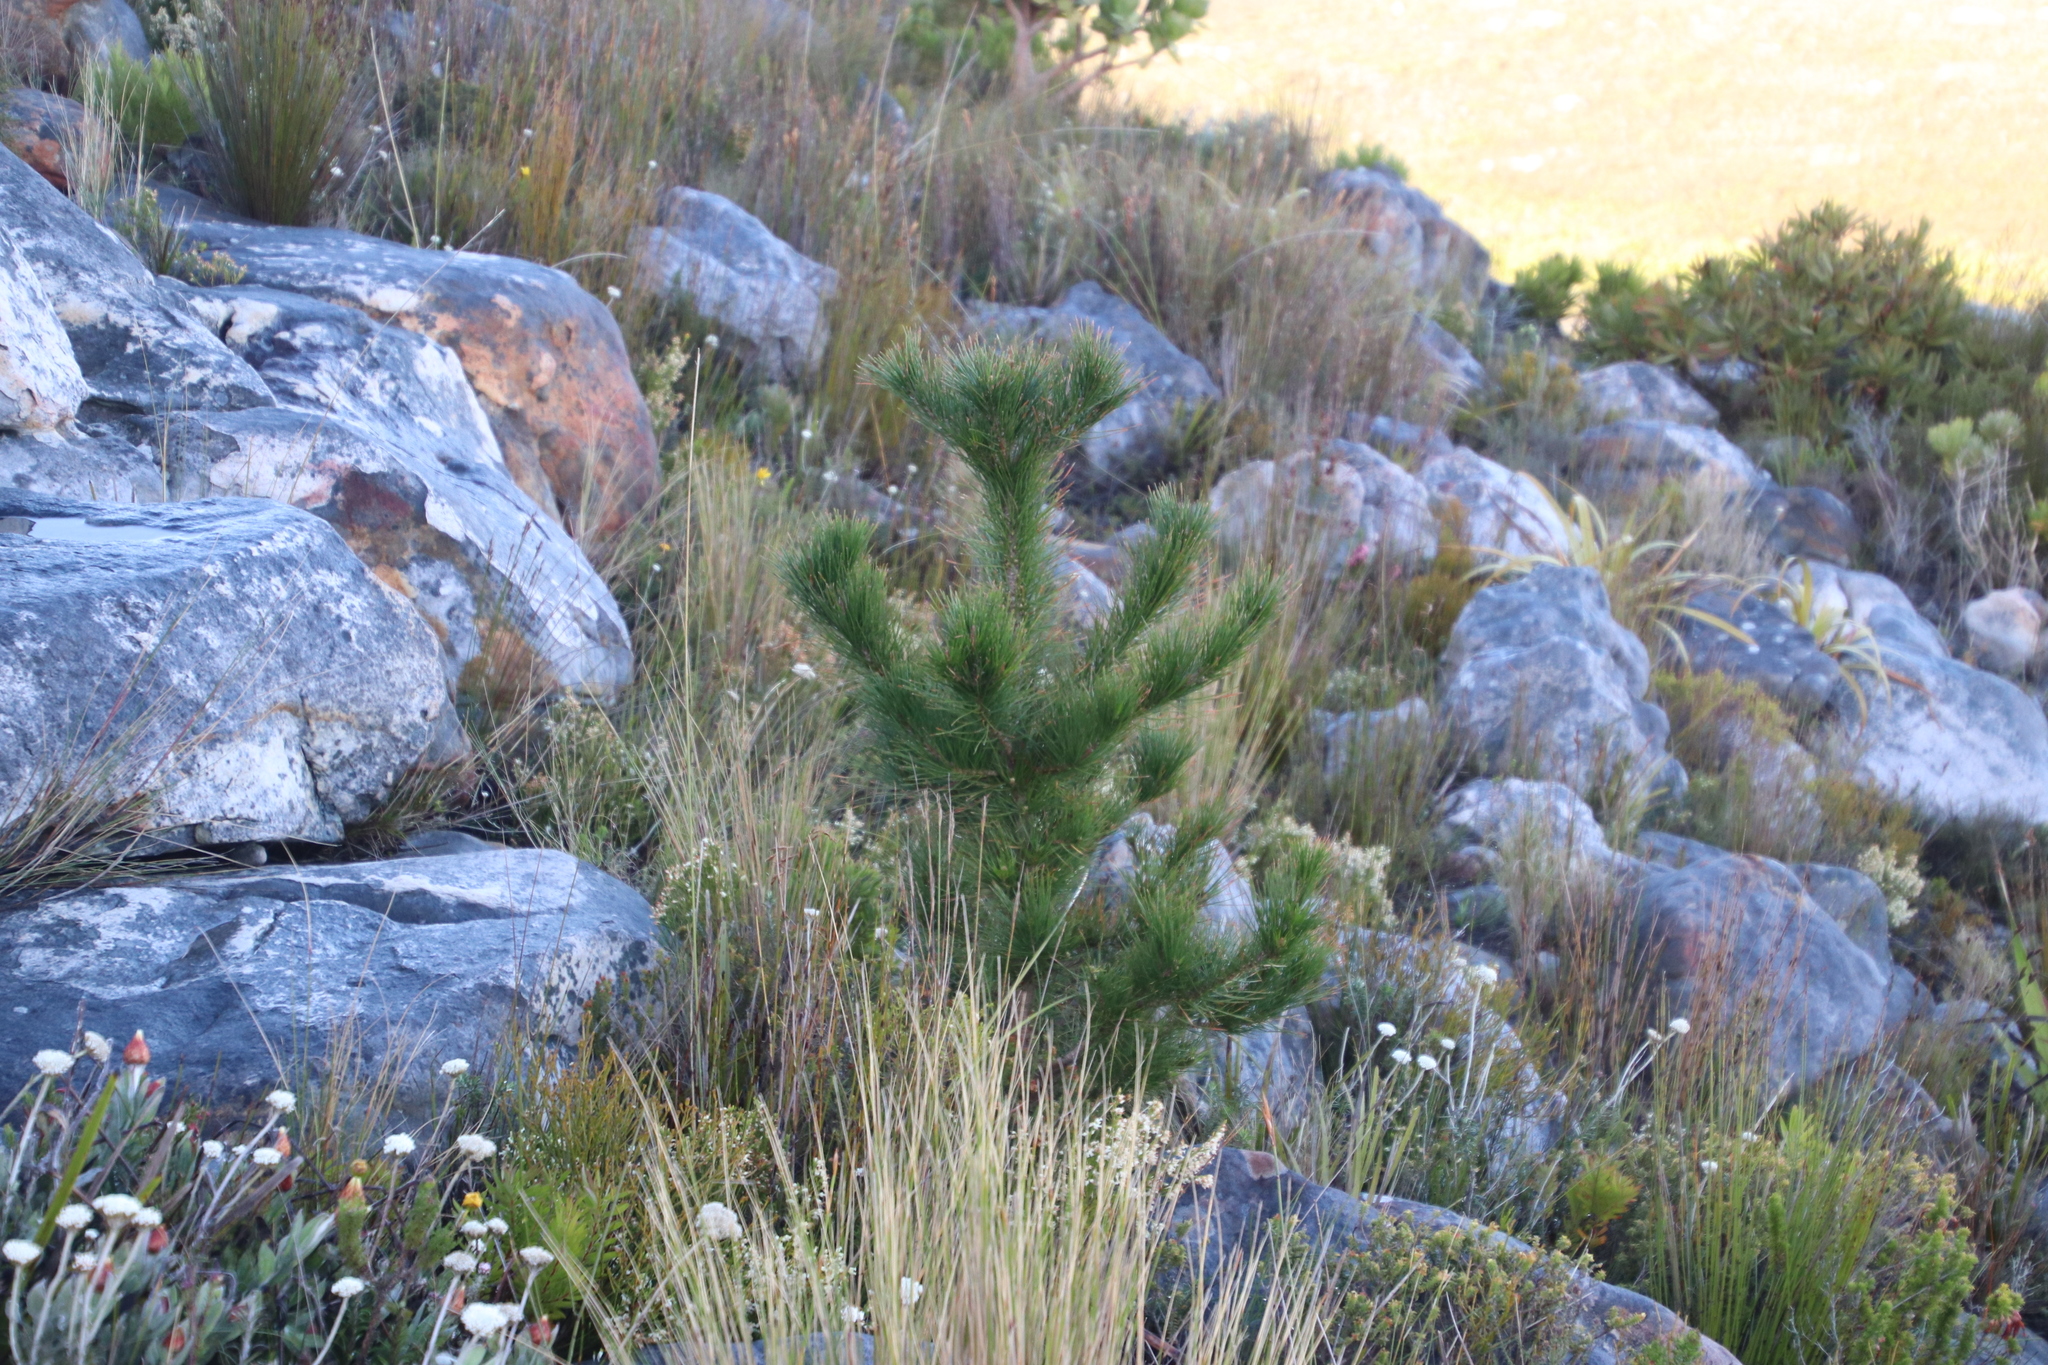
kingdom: Plantae
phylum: Tracheophyta
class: Pinopsida
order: Pinales
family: Pinaceae
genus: Pinus
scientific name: Pinus radiata
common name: Monterey pine
